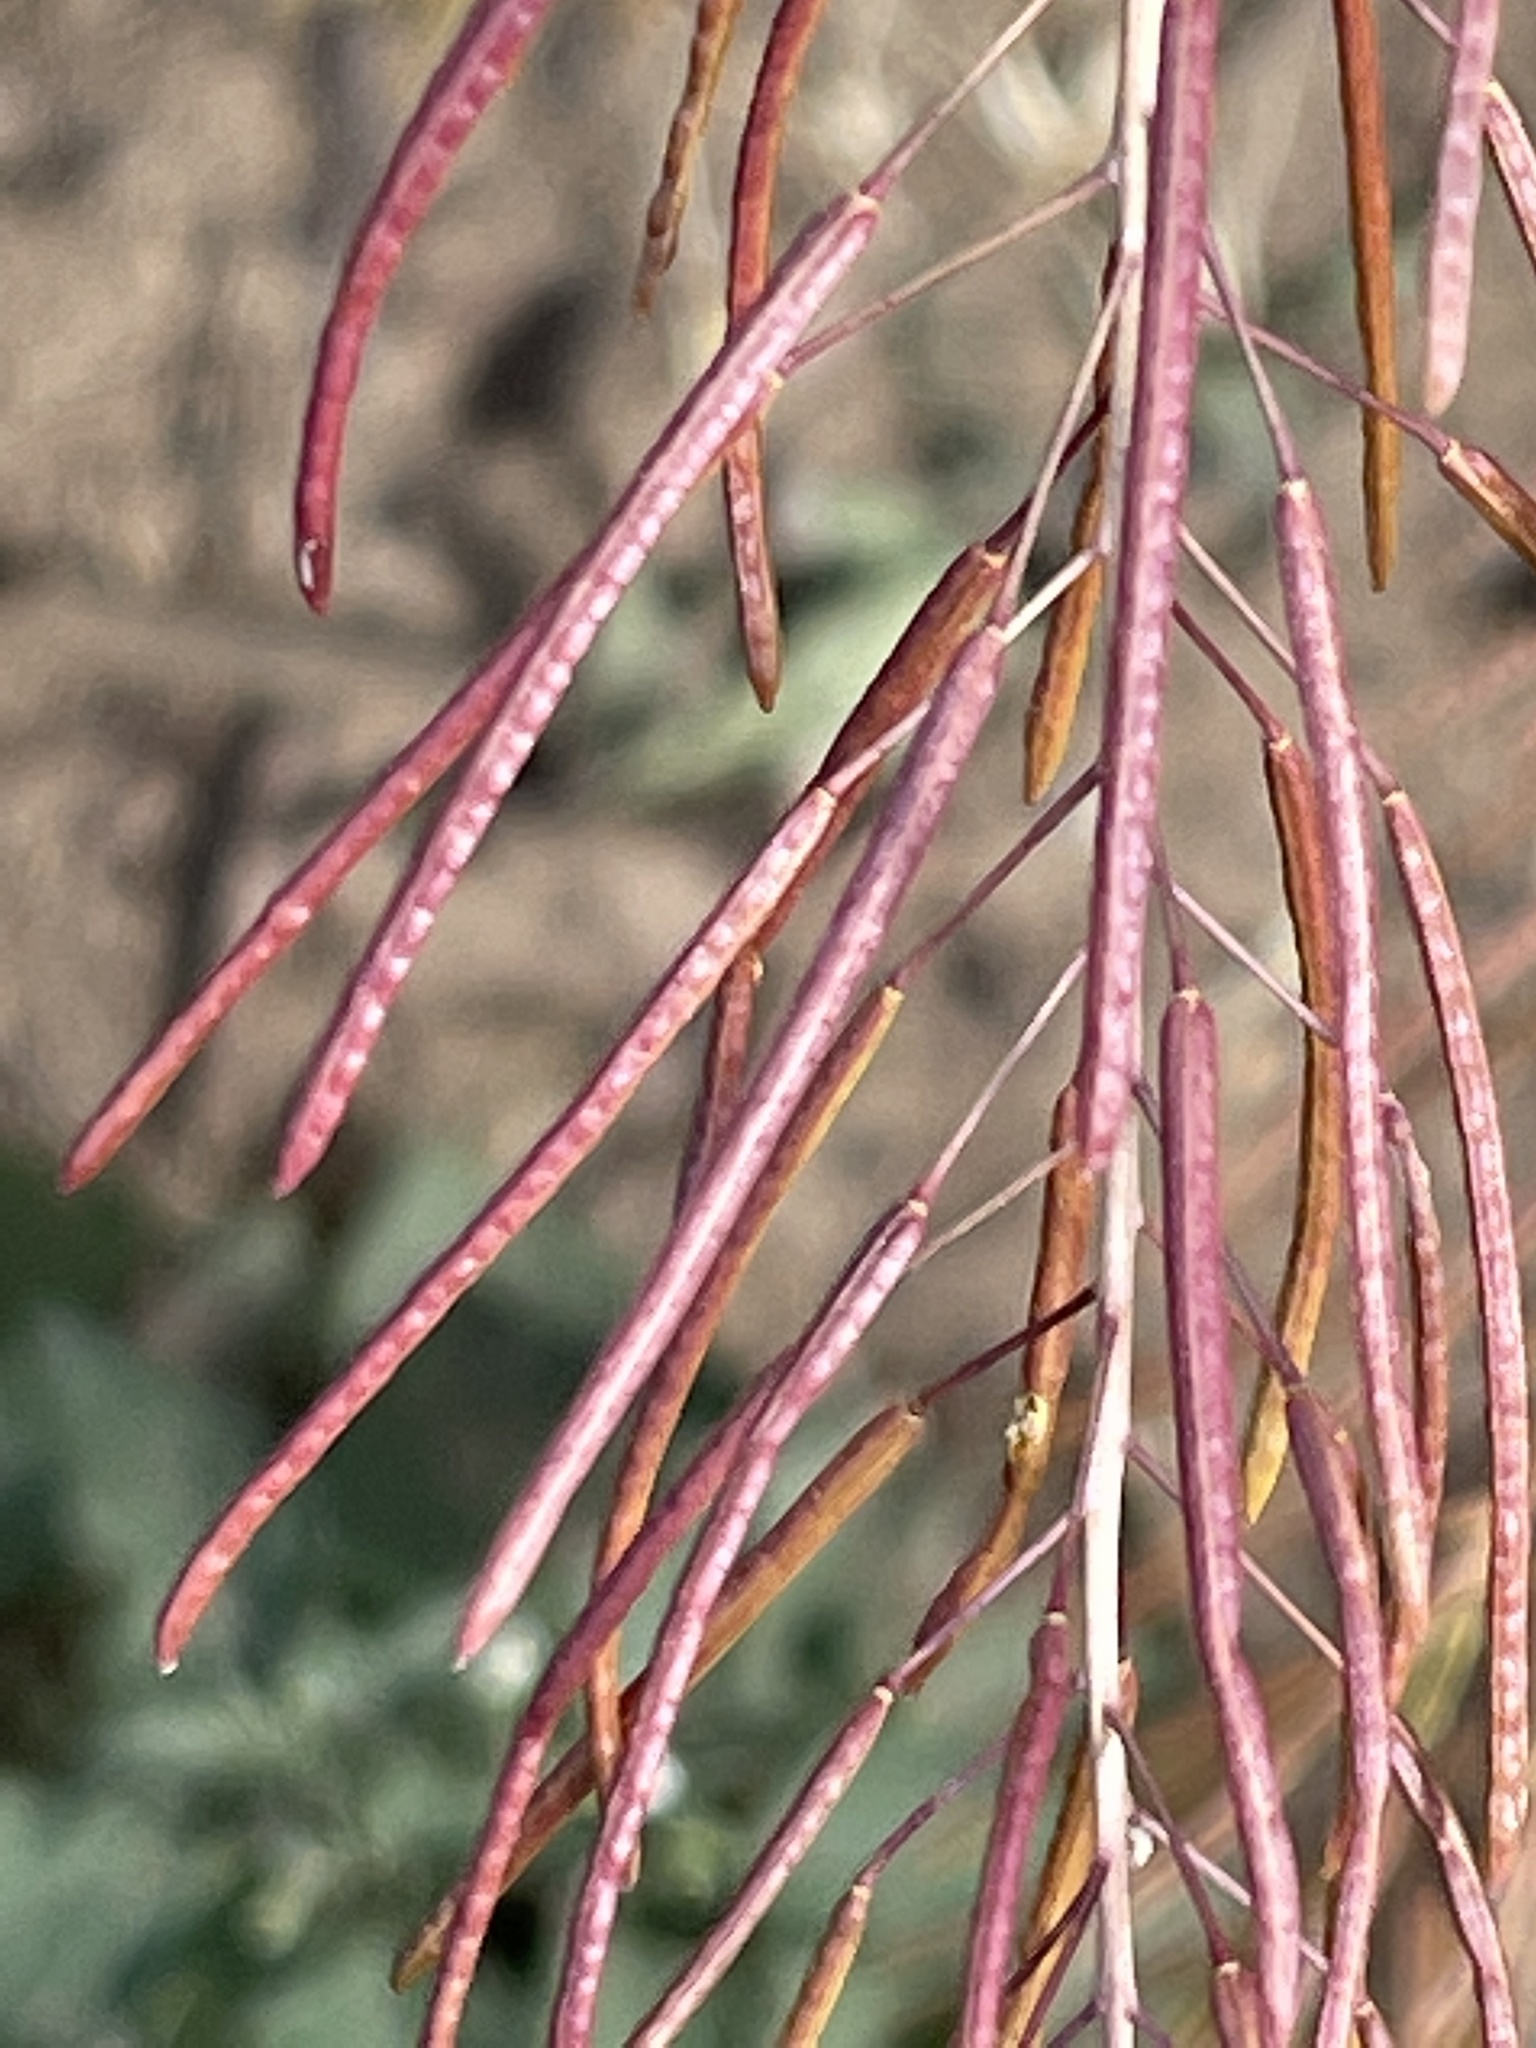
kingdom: Plantae
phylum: Tracheophyta
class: Magnoliopsida
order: Brassicales
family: Brassicaceae
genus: Descurainia
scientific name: Descurainia sophia
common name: Flixweed
